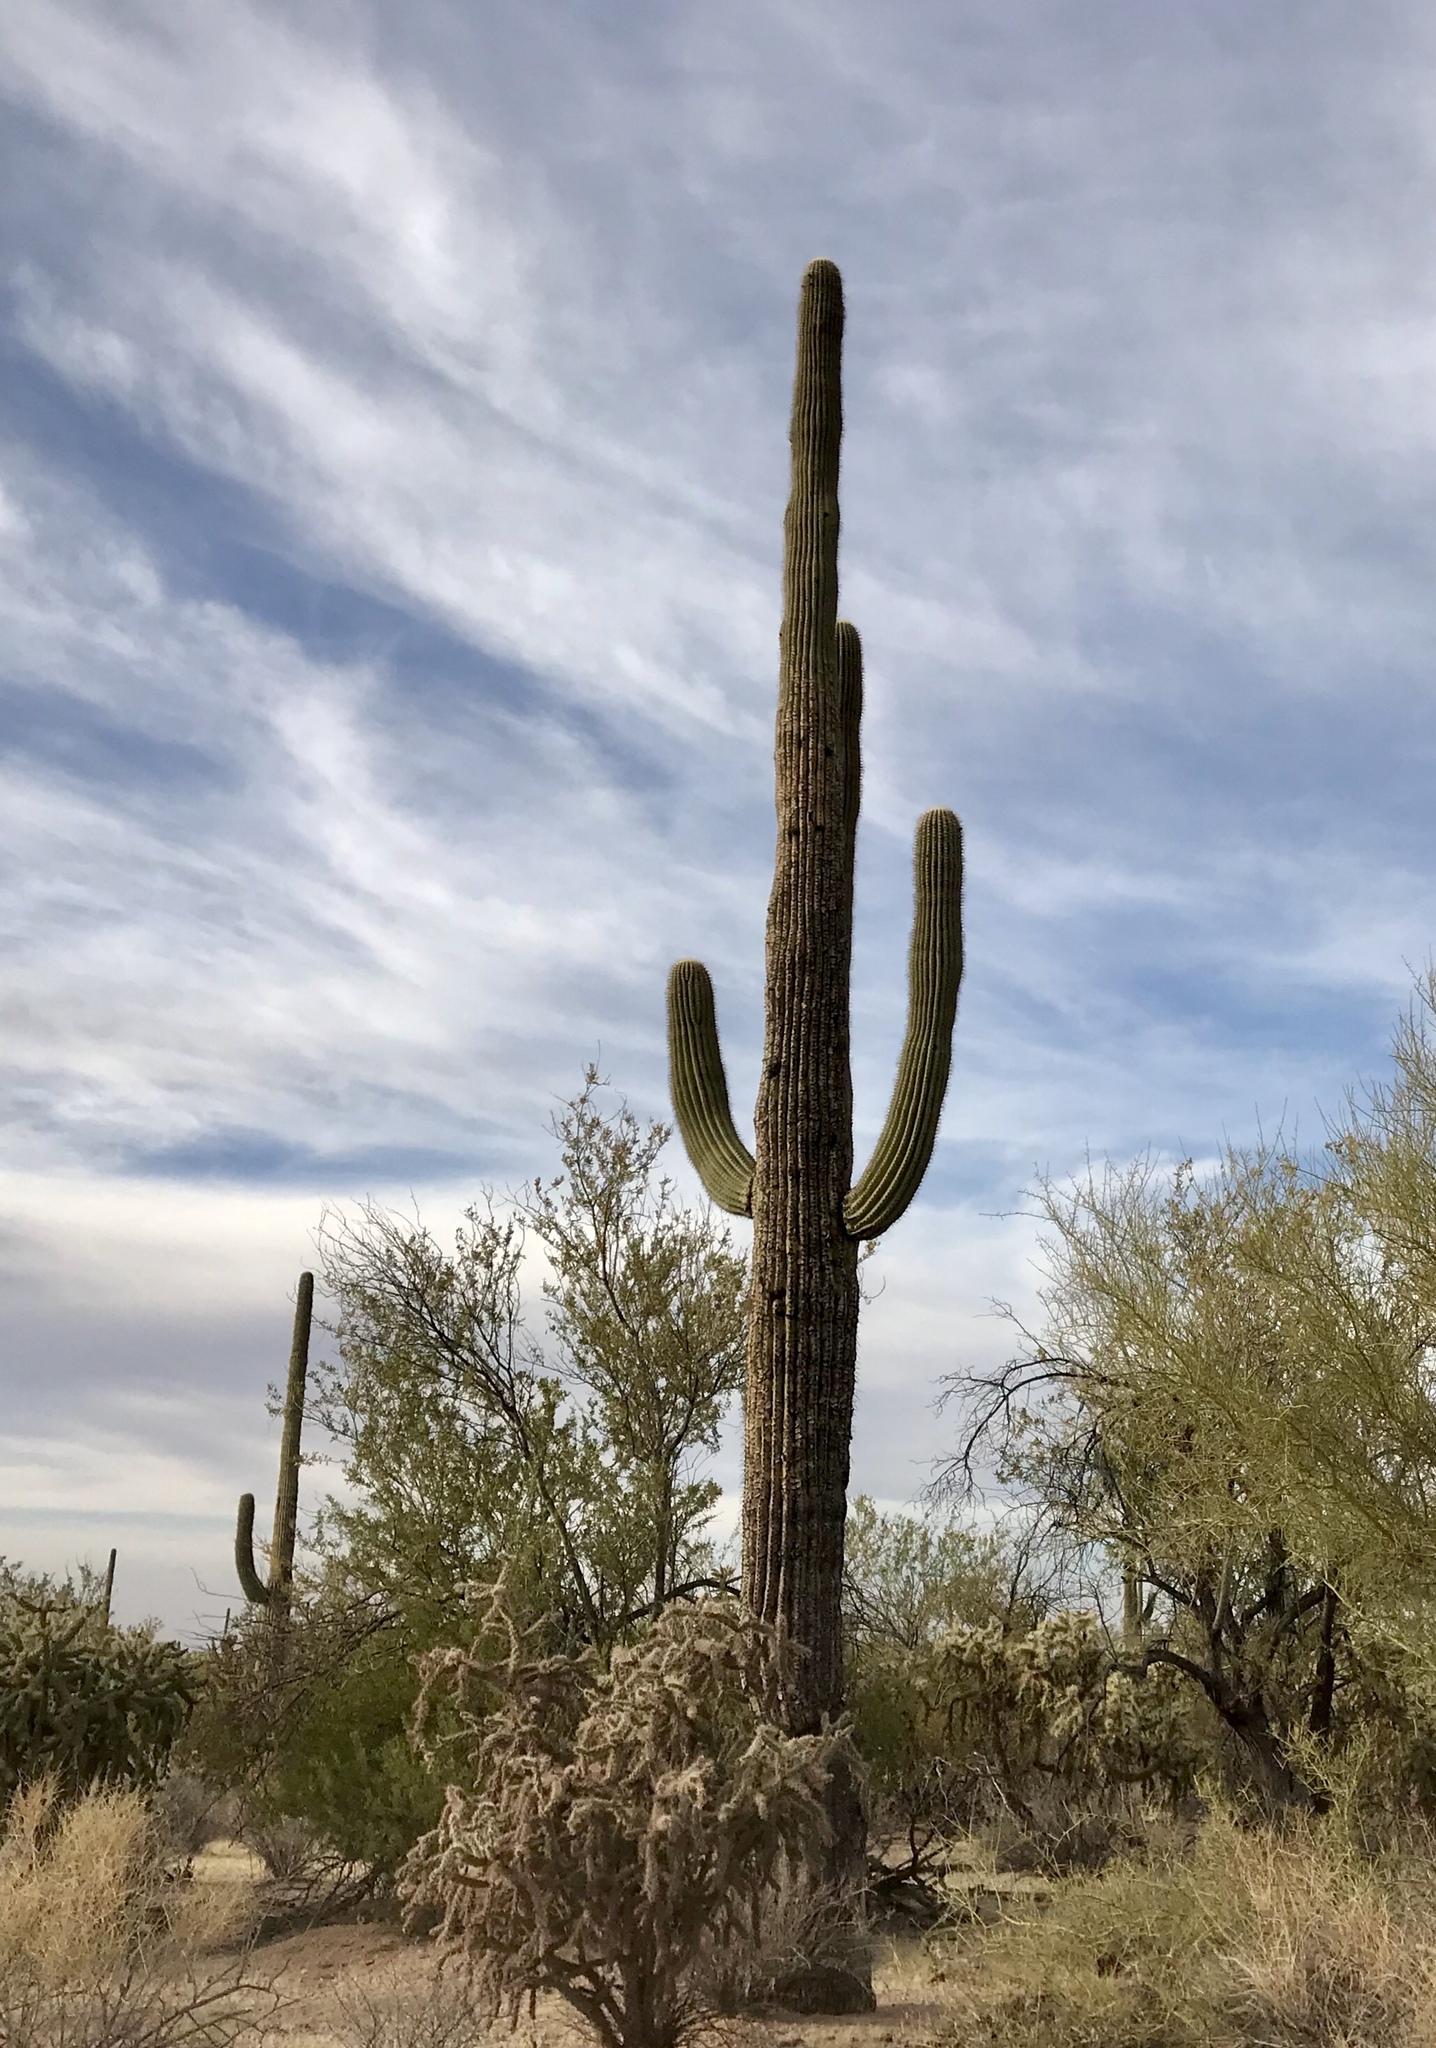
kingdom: Plantae
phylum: Tracheophyta
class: Magnoliopsida
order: Caryophyllales
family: Cactaceae
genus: Carnegiea
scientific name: Carnegiea gigantea
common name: Saguaro
